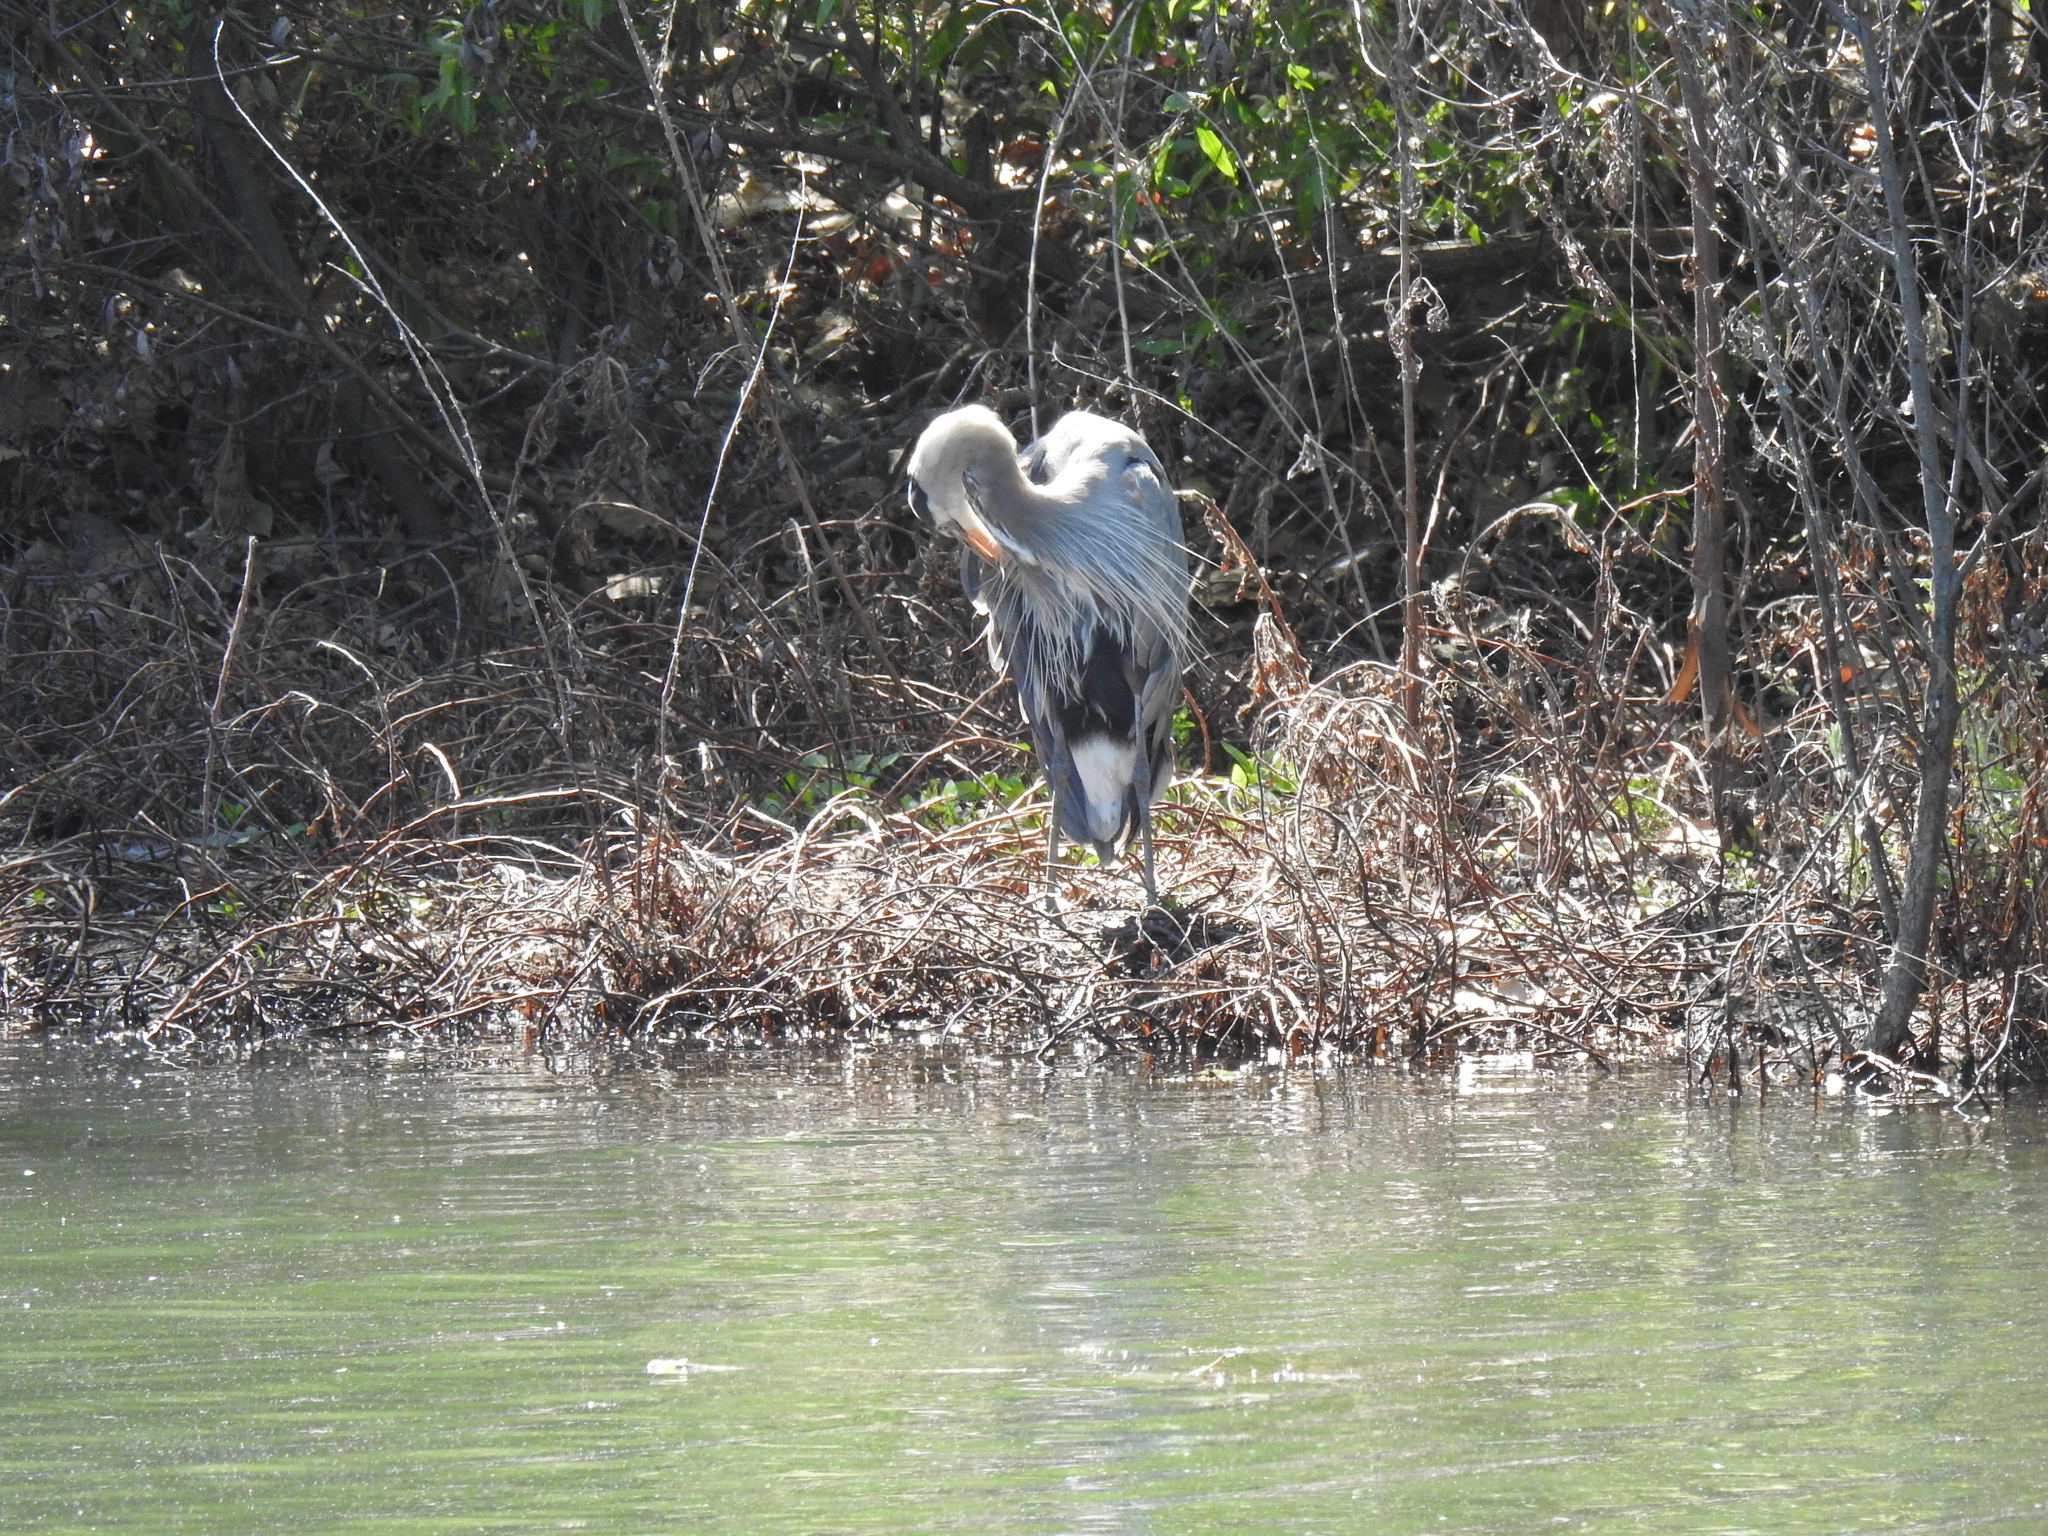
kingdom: Animalia
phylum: Chordata
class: Aves
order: Pelecaniformes
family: Ardeidae
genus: Ardea
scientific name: Ardea herodias
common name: Great blue heron
